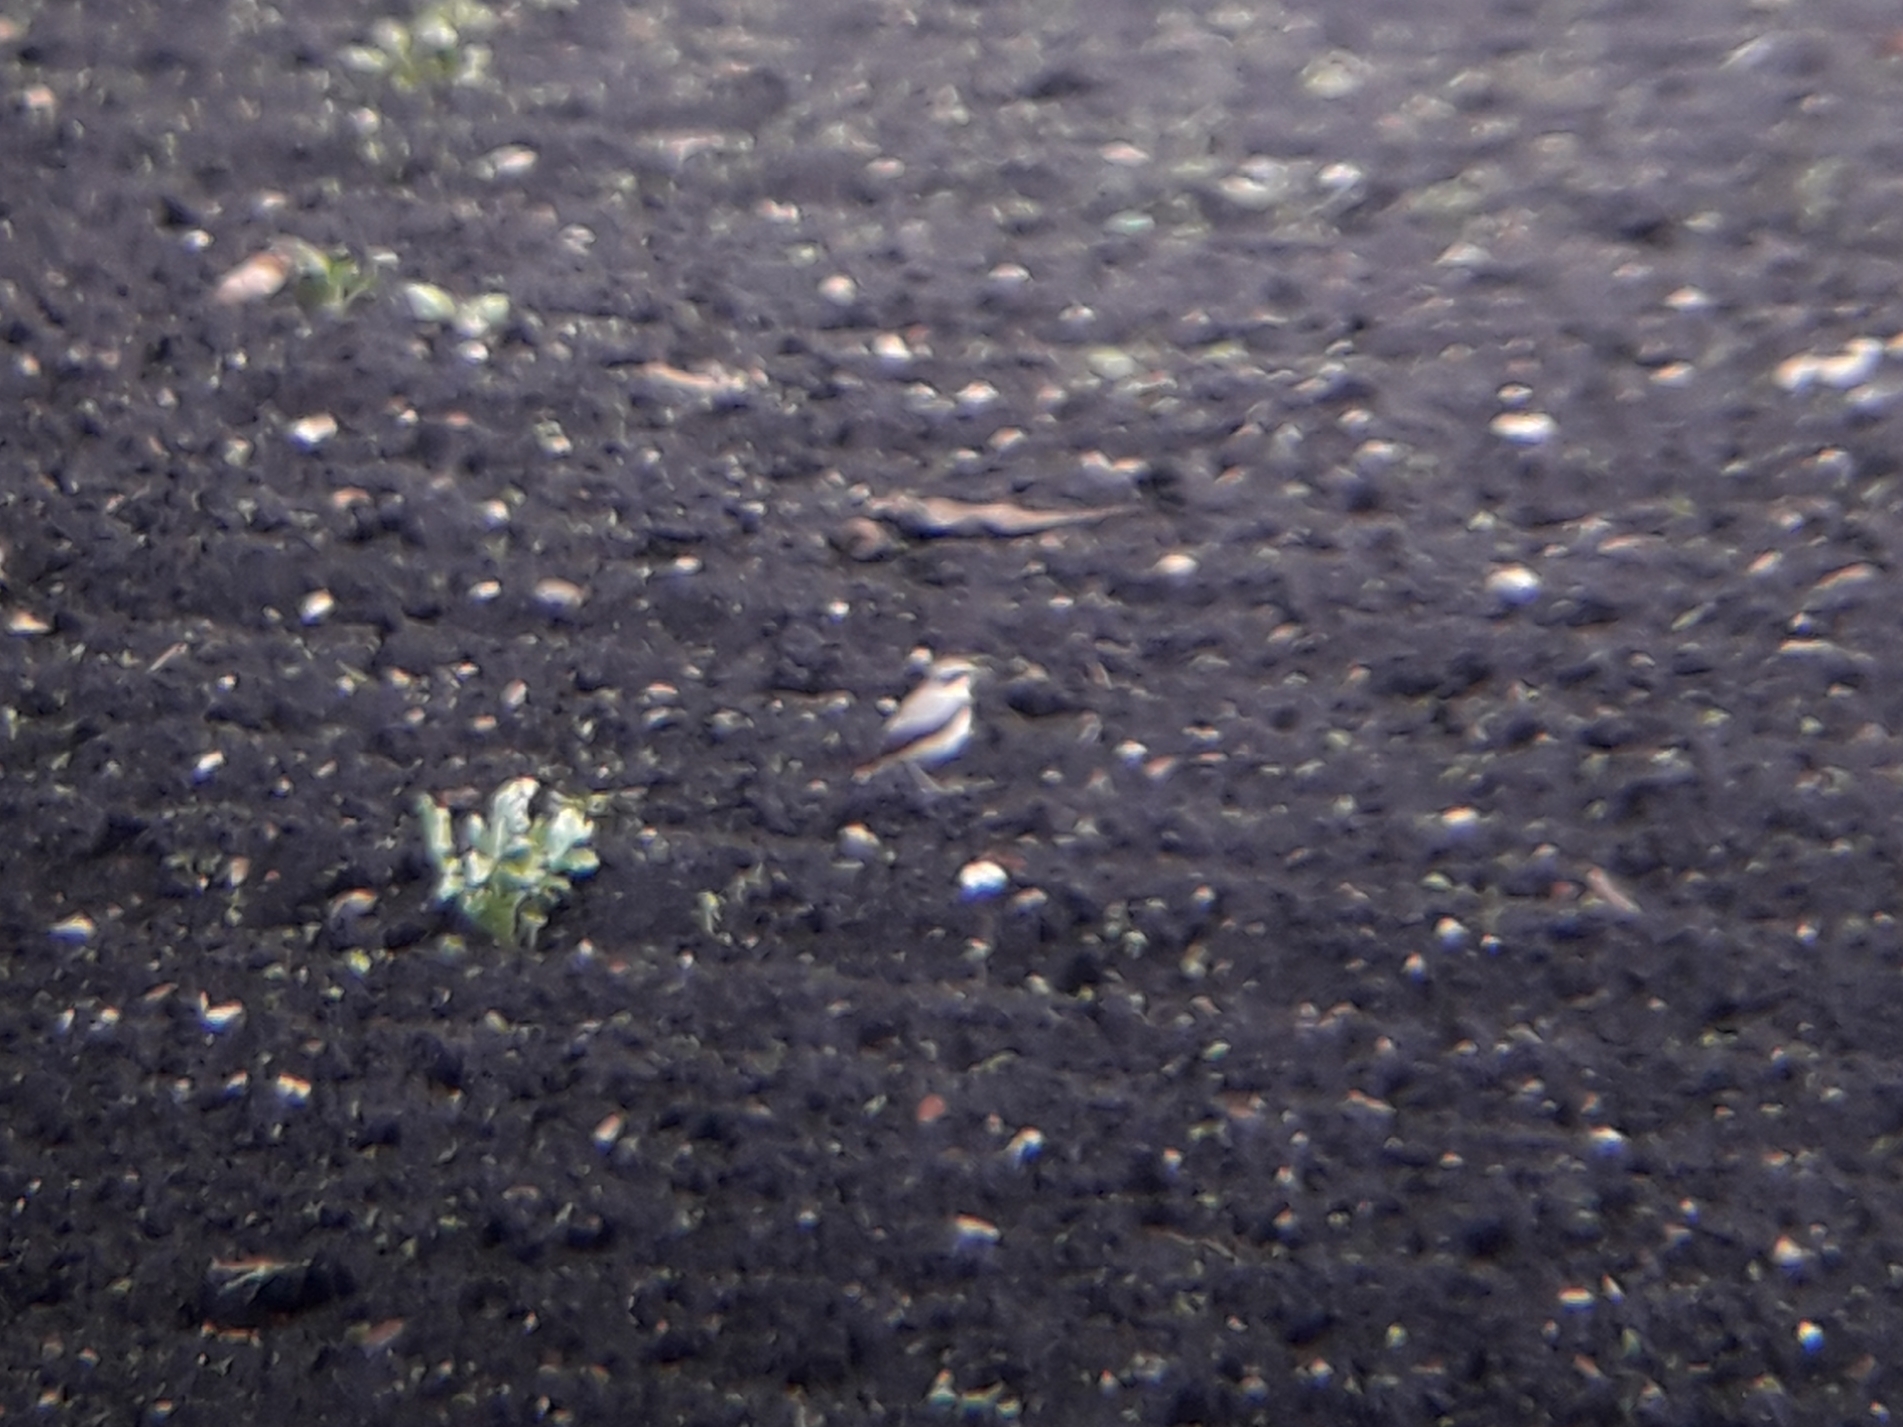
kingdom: Animalia
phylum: Chordata
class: Aves
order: Passeriformes
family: Muscicapidae
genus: Oenanthe
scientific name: Oenanthe oenanthe
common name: Northern wheatear
